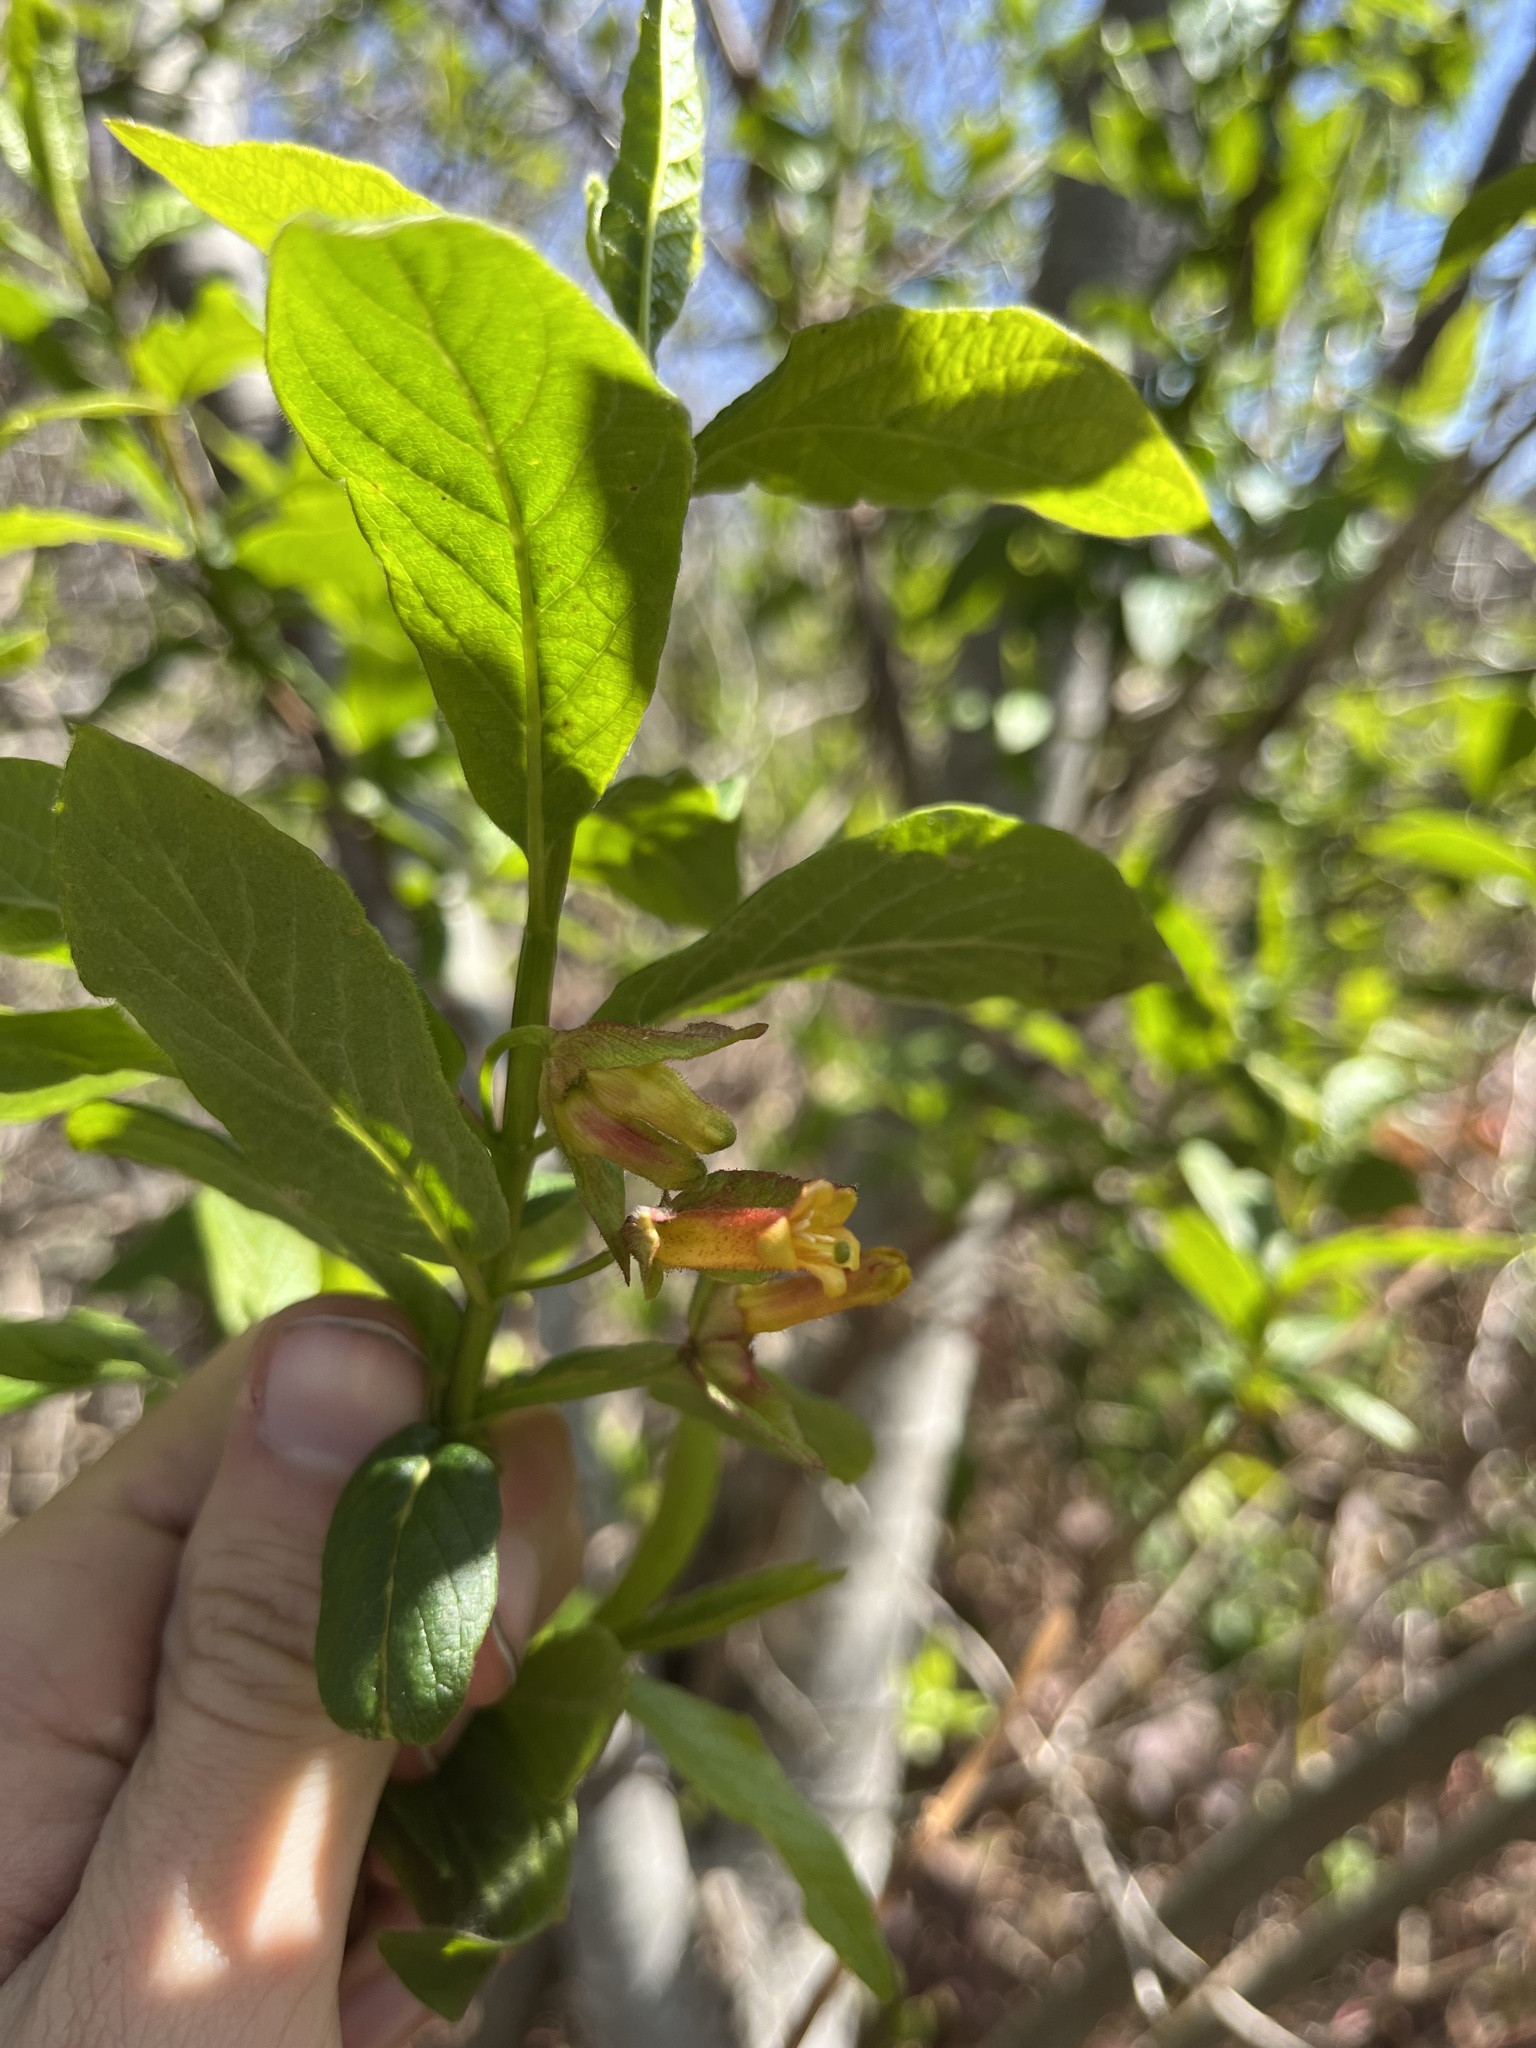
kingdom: Plantae
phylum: Tracheophyta
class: Magnoliopsida
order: Dipsacales
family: Caprifoliaceae
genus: Lonicera
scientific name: Lonicera involucrata
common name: Californian honeysuckle
